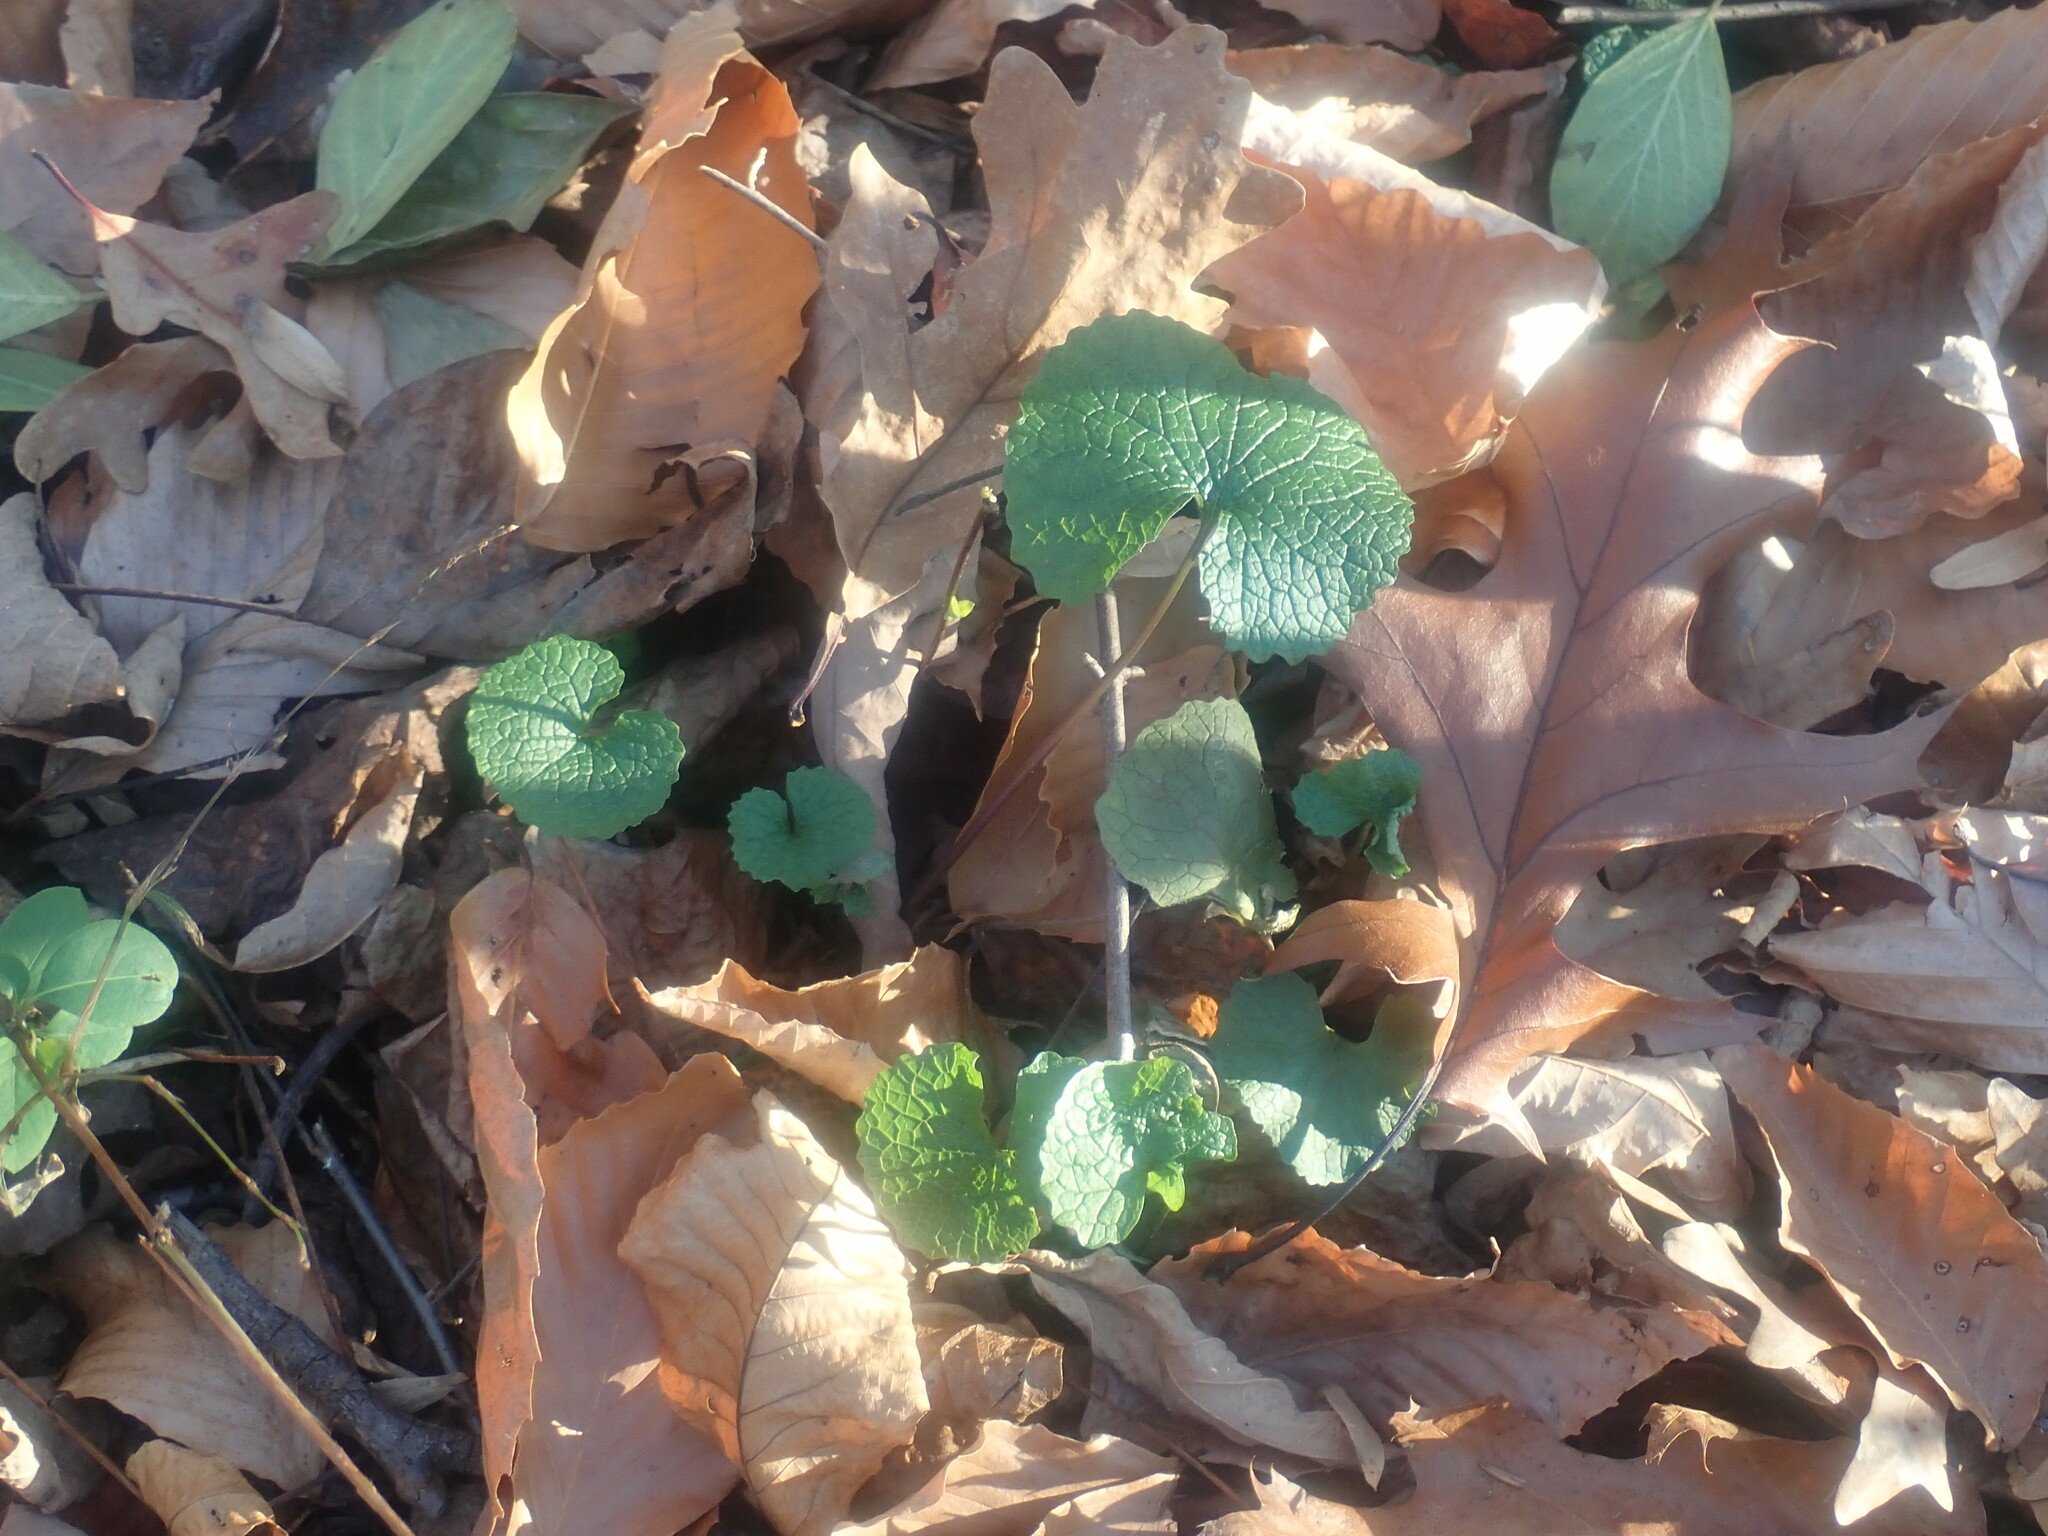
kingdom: Plantae
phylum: Tracheophyta
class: Magnoliopsida
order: Brassicales
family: Brassicaceae
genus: Alliaria
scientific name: Alliaria petiolata
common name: Garlic mustard
